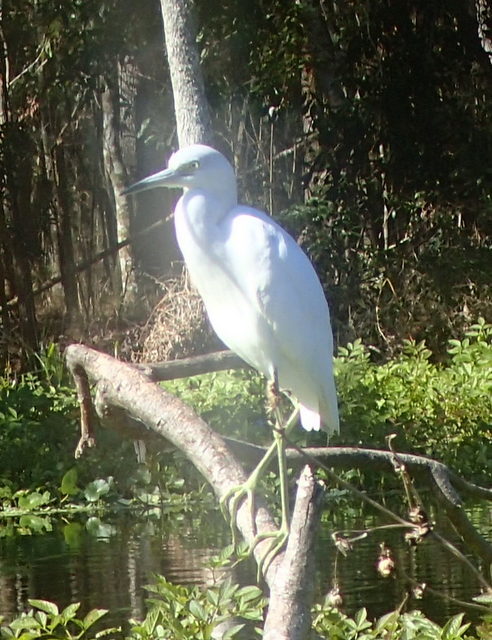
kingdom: Animalia
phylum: Chordata
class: Aves
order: Pelecaniformes
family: Ardeidae
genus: Egretta
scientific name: Egretta caerulea
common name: Little blue heron
